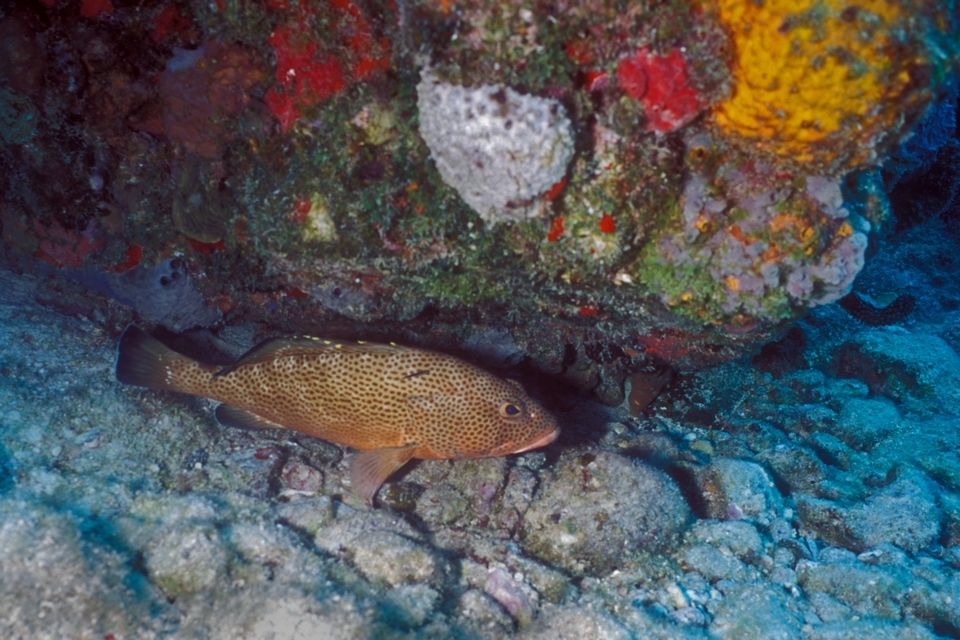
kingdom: Animalia
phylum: Chordata
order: Perciformes
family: Serranidae
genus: Epinephelus
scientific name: Epinephelus guttatus
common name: Red hind
